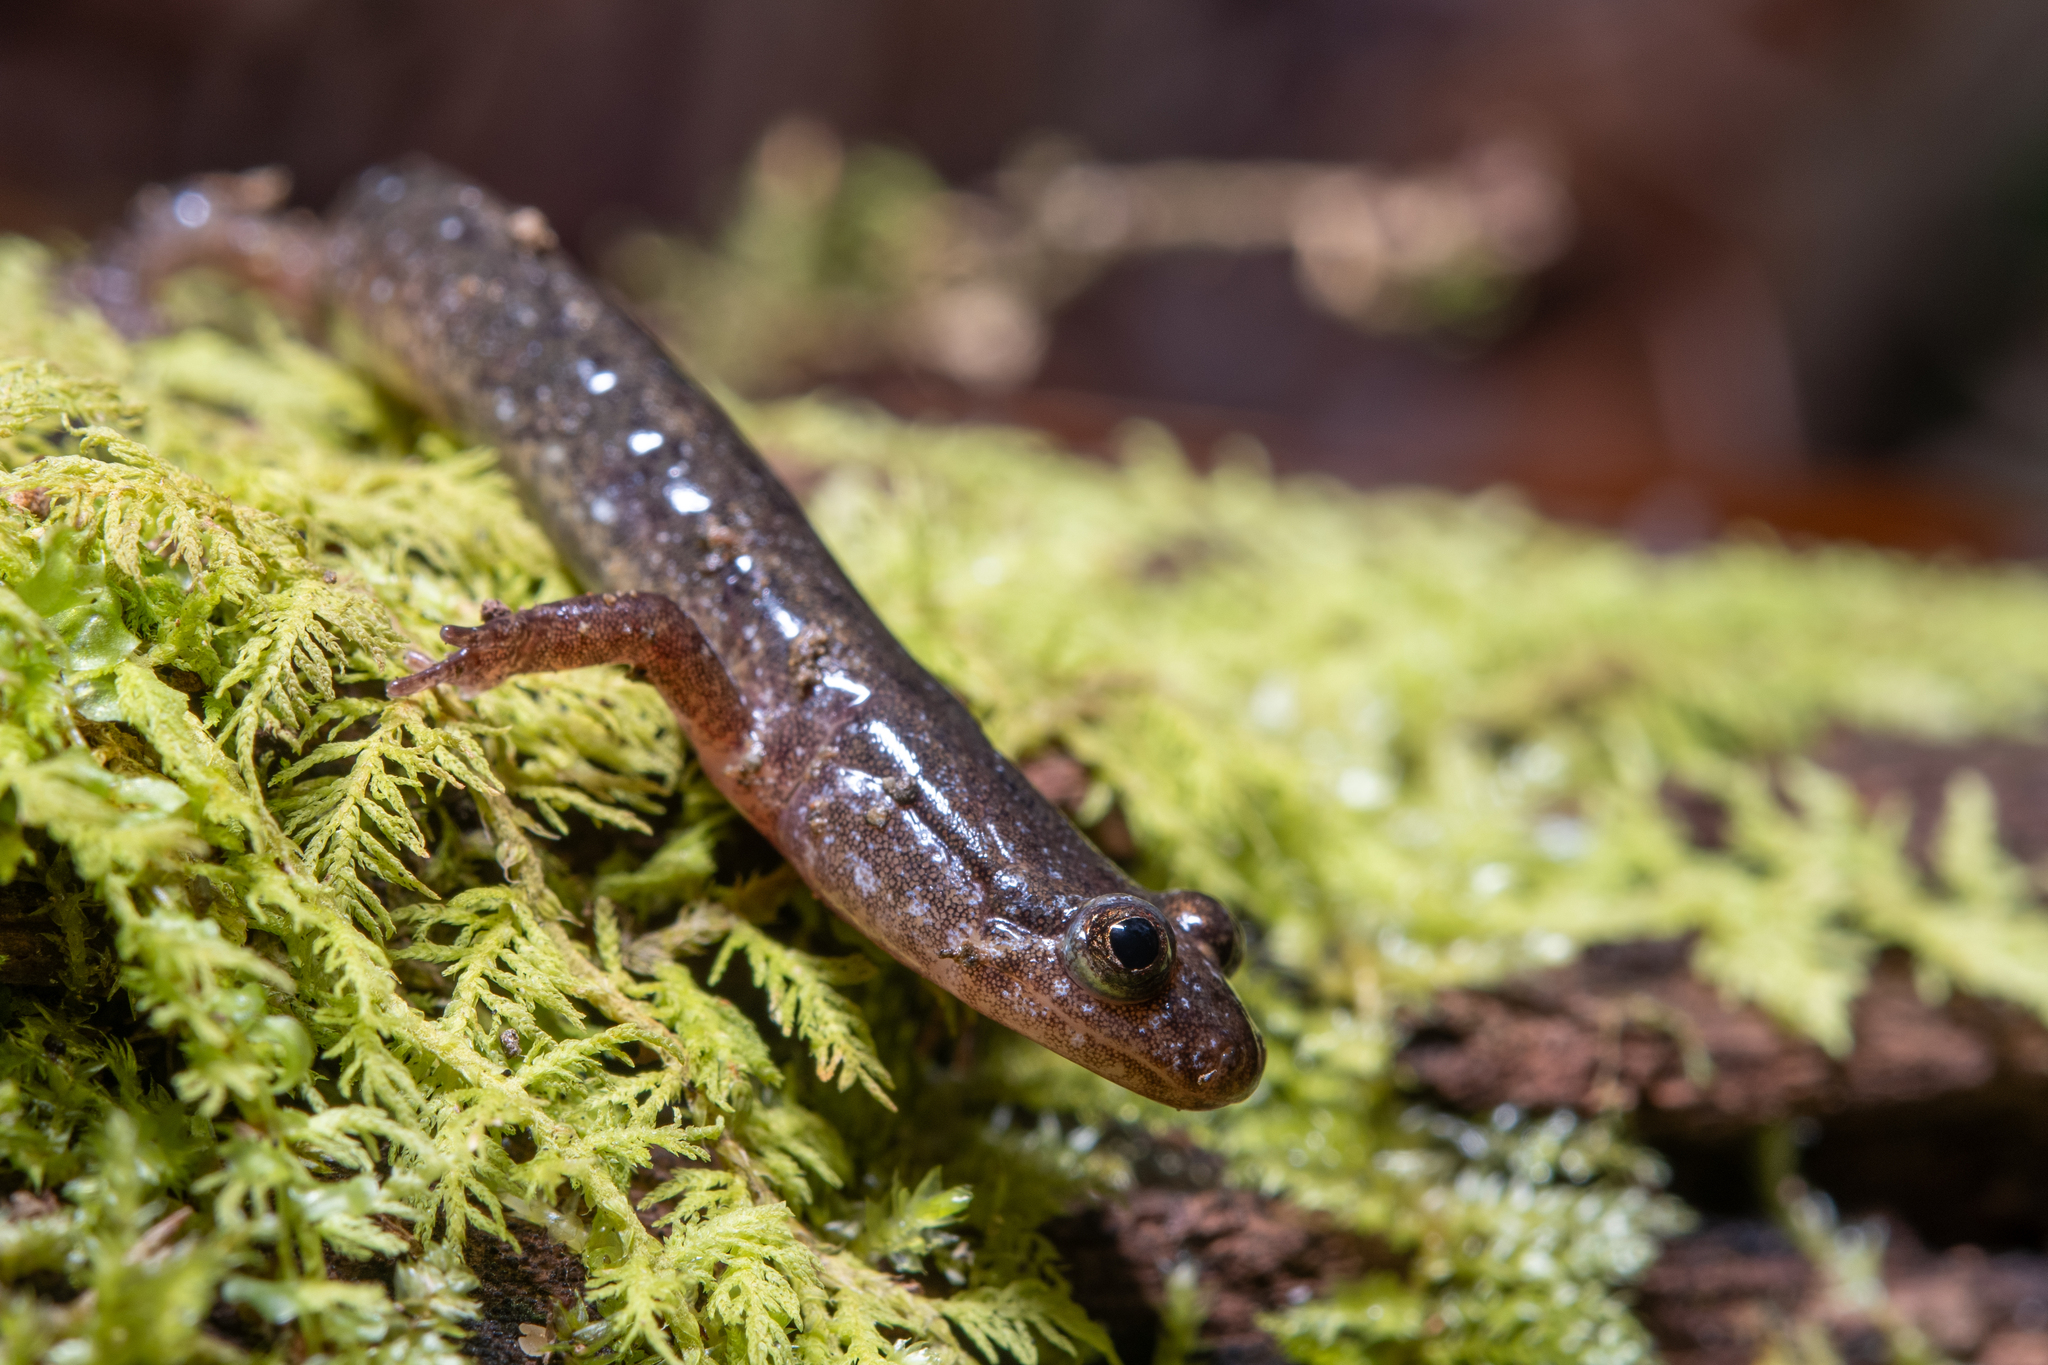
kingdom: Animalia
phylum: Chordata
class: Amphibia
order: Caudata
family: Plethodontidae
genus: Desmognathus
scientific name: Desmognathus fuscus
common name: Northern dusky salamander
